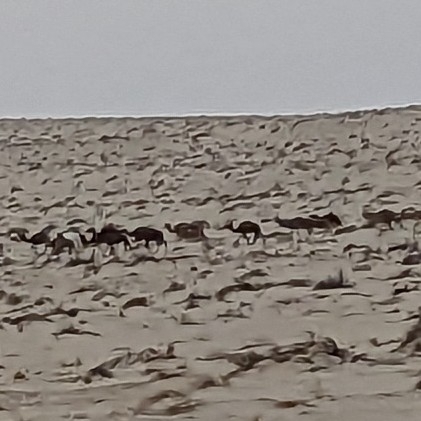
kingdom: Animalia
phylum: Chordata
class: Mammalia
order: Artiodactyla
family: Camelidae
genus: Camelus
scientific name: Camelus dromedarius
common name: One-humped camel
